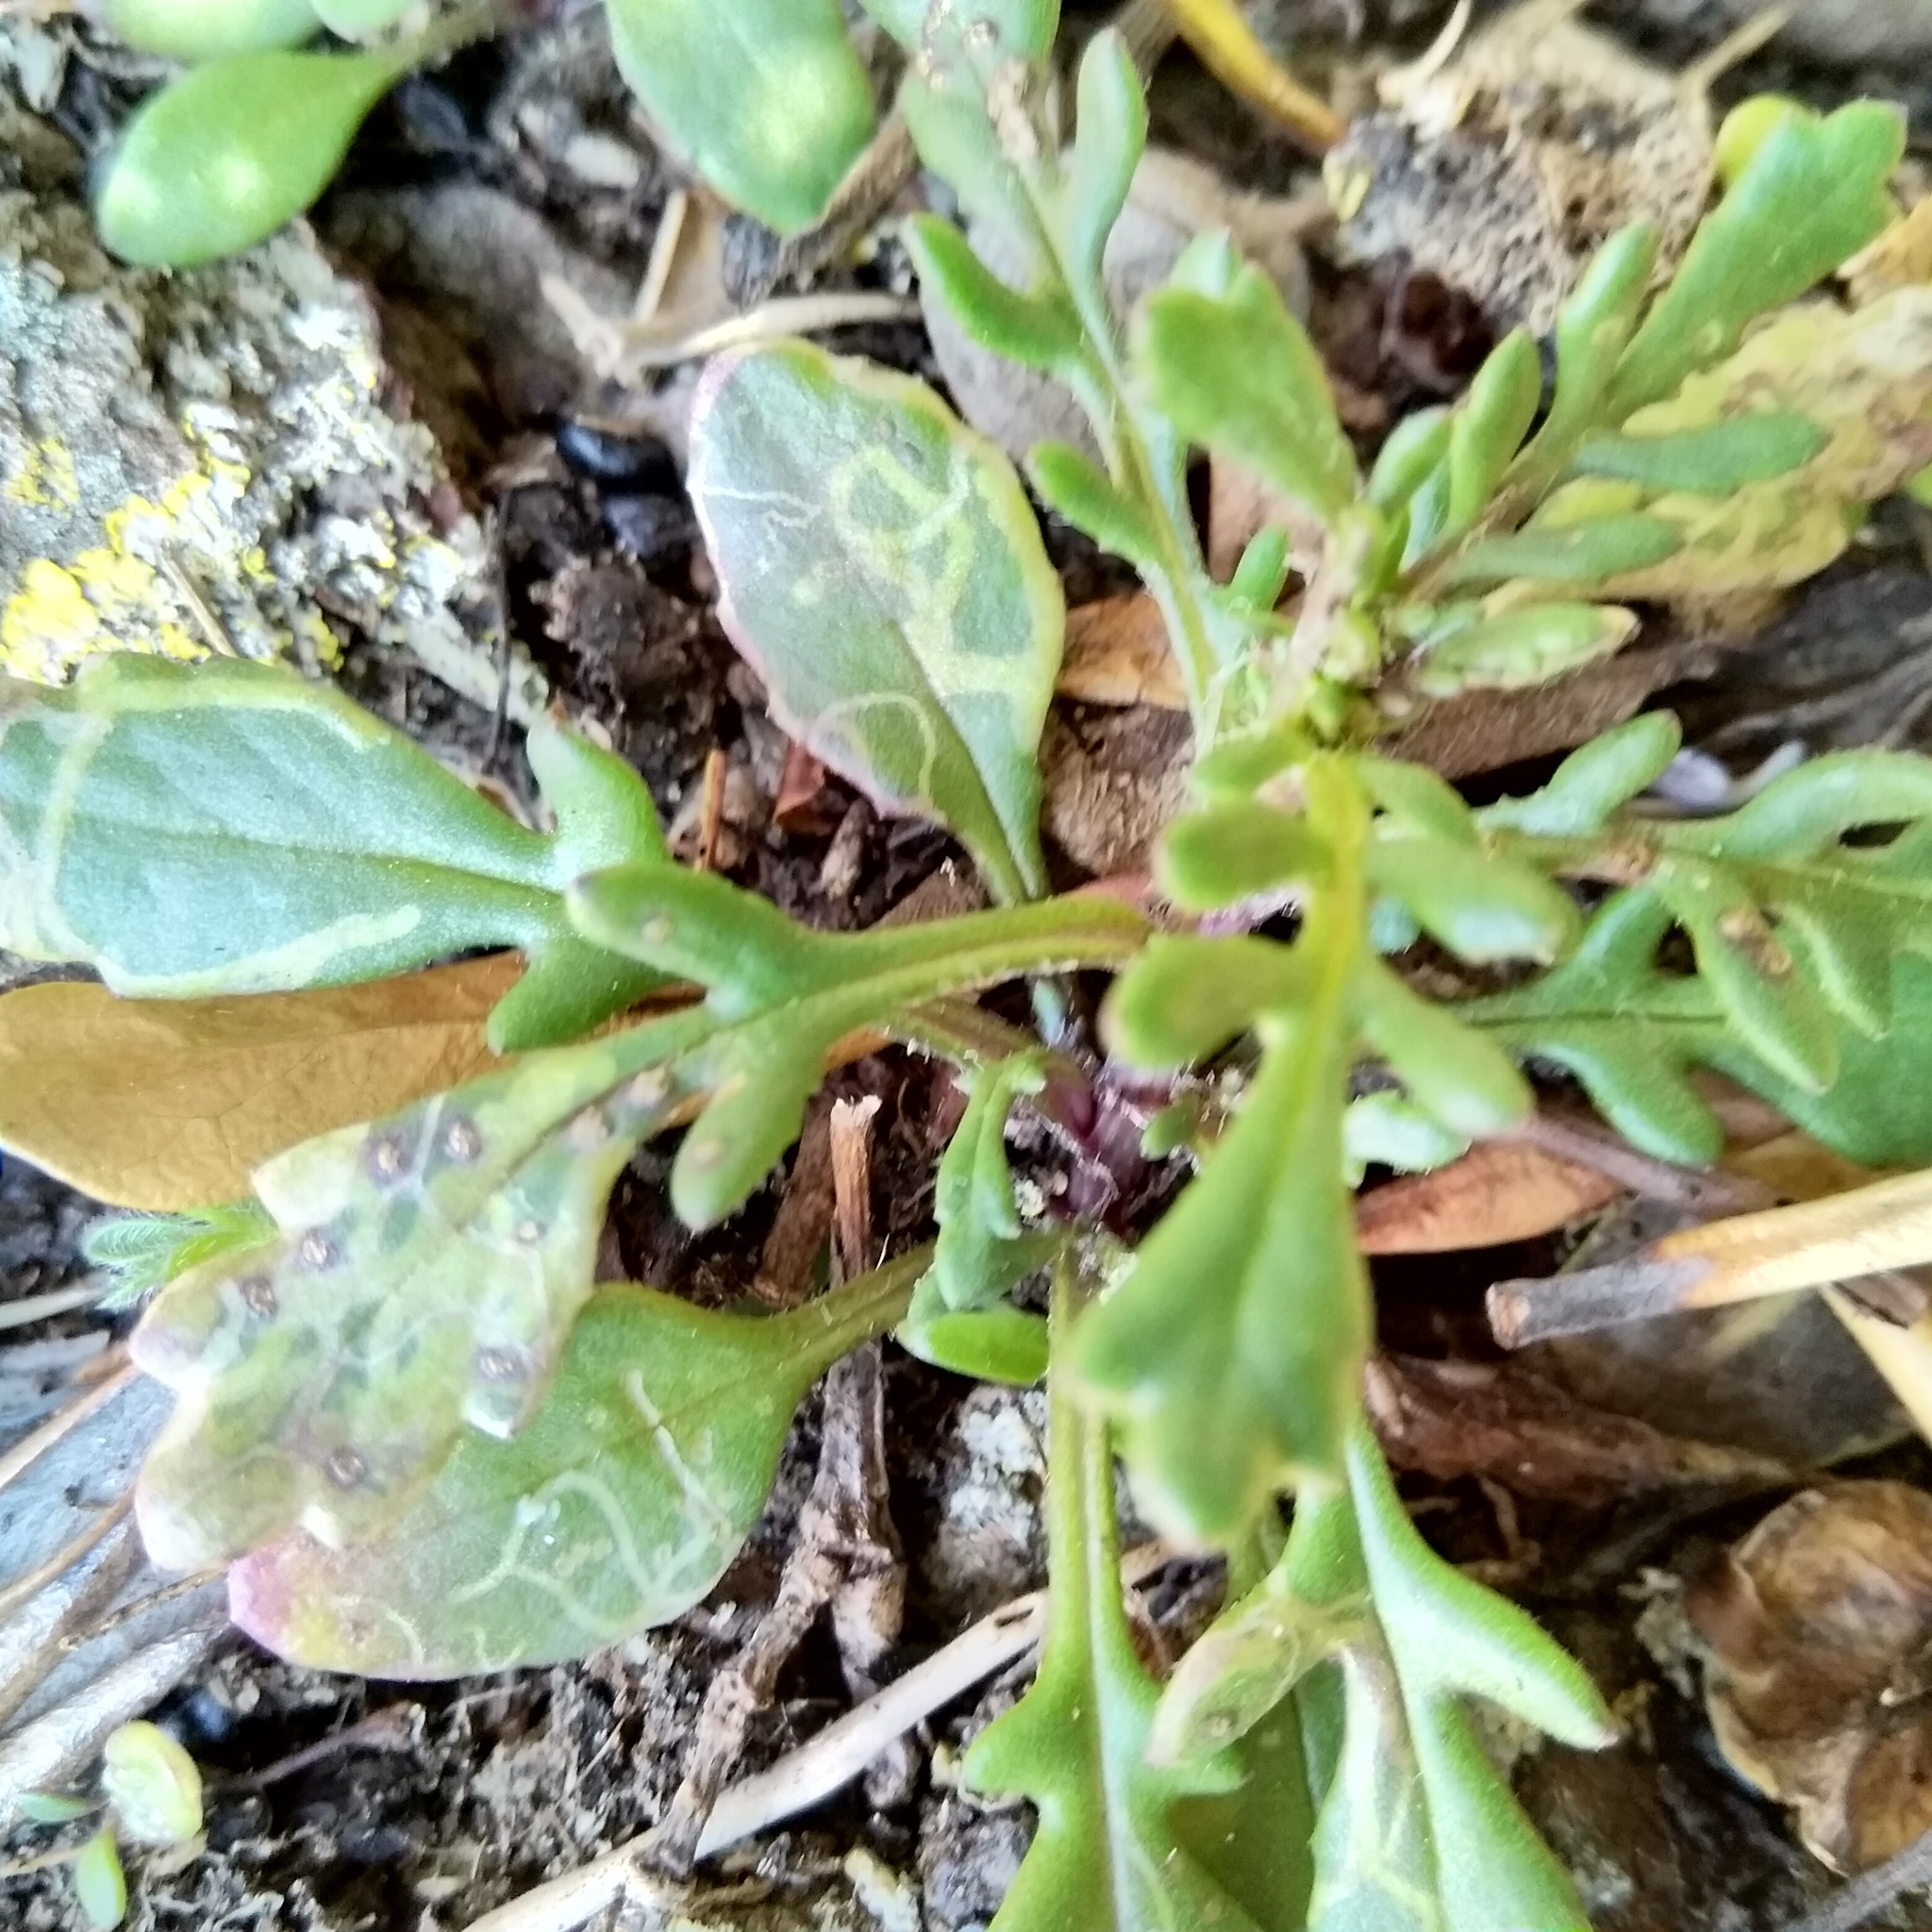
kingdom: Plantae
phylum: Tracheophyta
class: Magnoliopsida
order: Asterales
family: Asteraceae
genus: Senecio
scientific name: Senecio lautus
